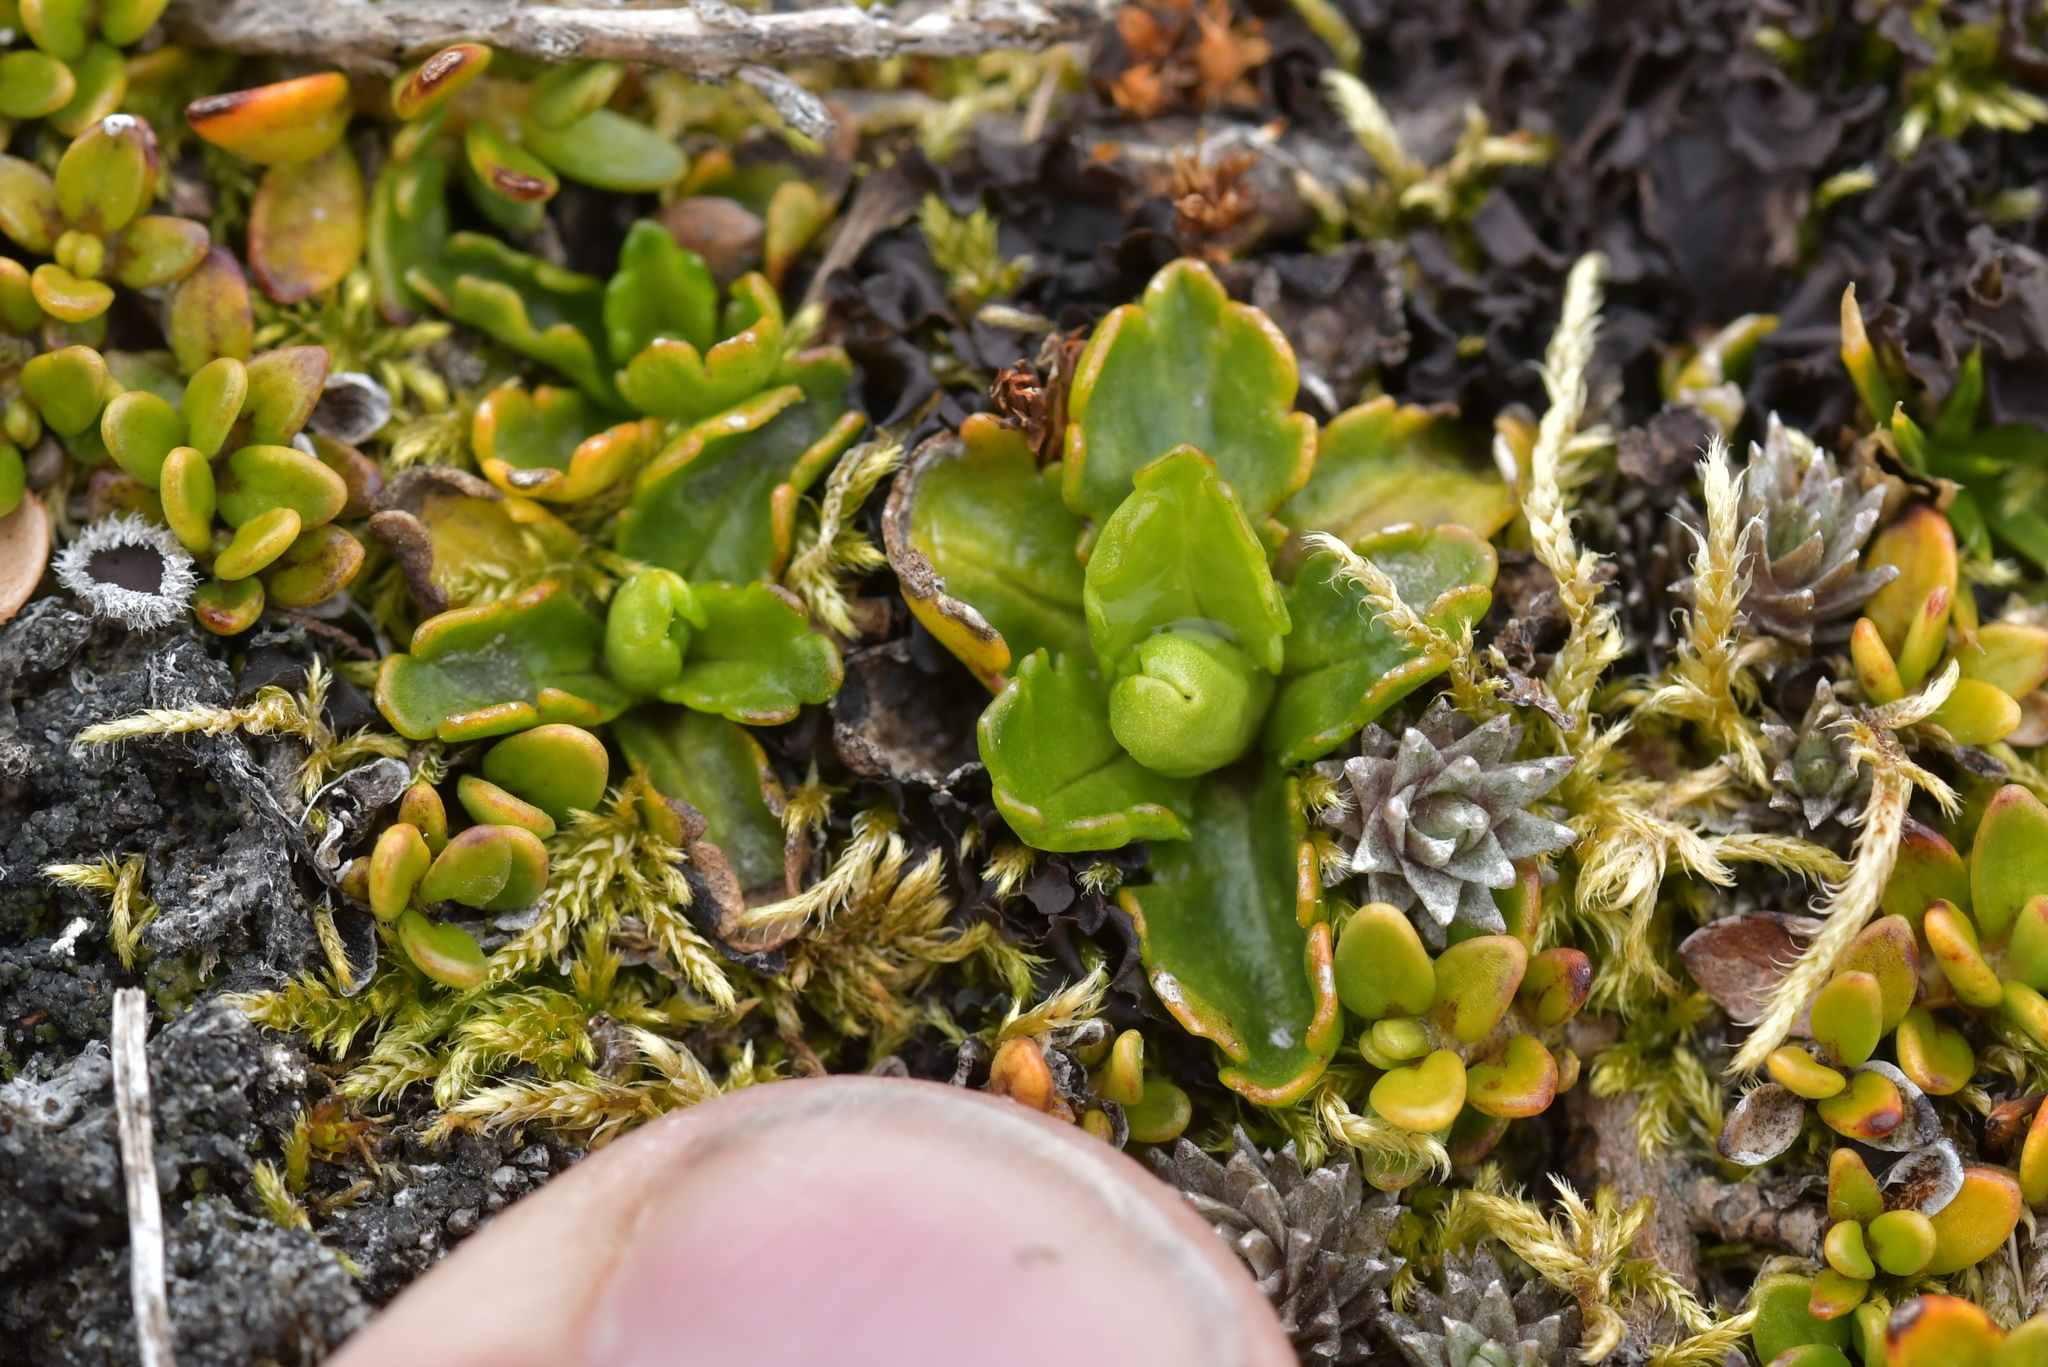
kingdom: Plantae
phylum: Tracheophyta
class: Magnoliopsida
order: Asterales
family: Asteraceae
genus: Brachyscome
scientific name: Brachyscome sinclairii
